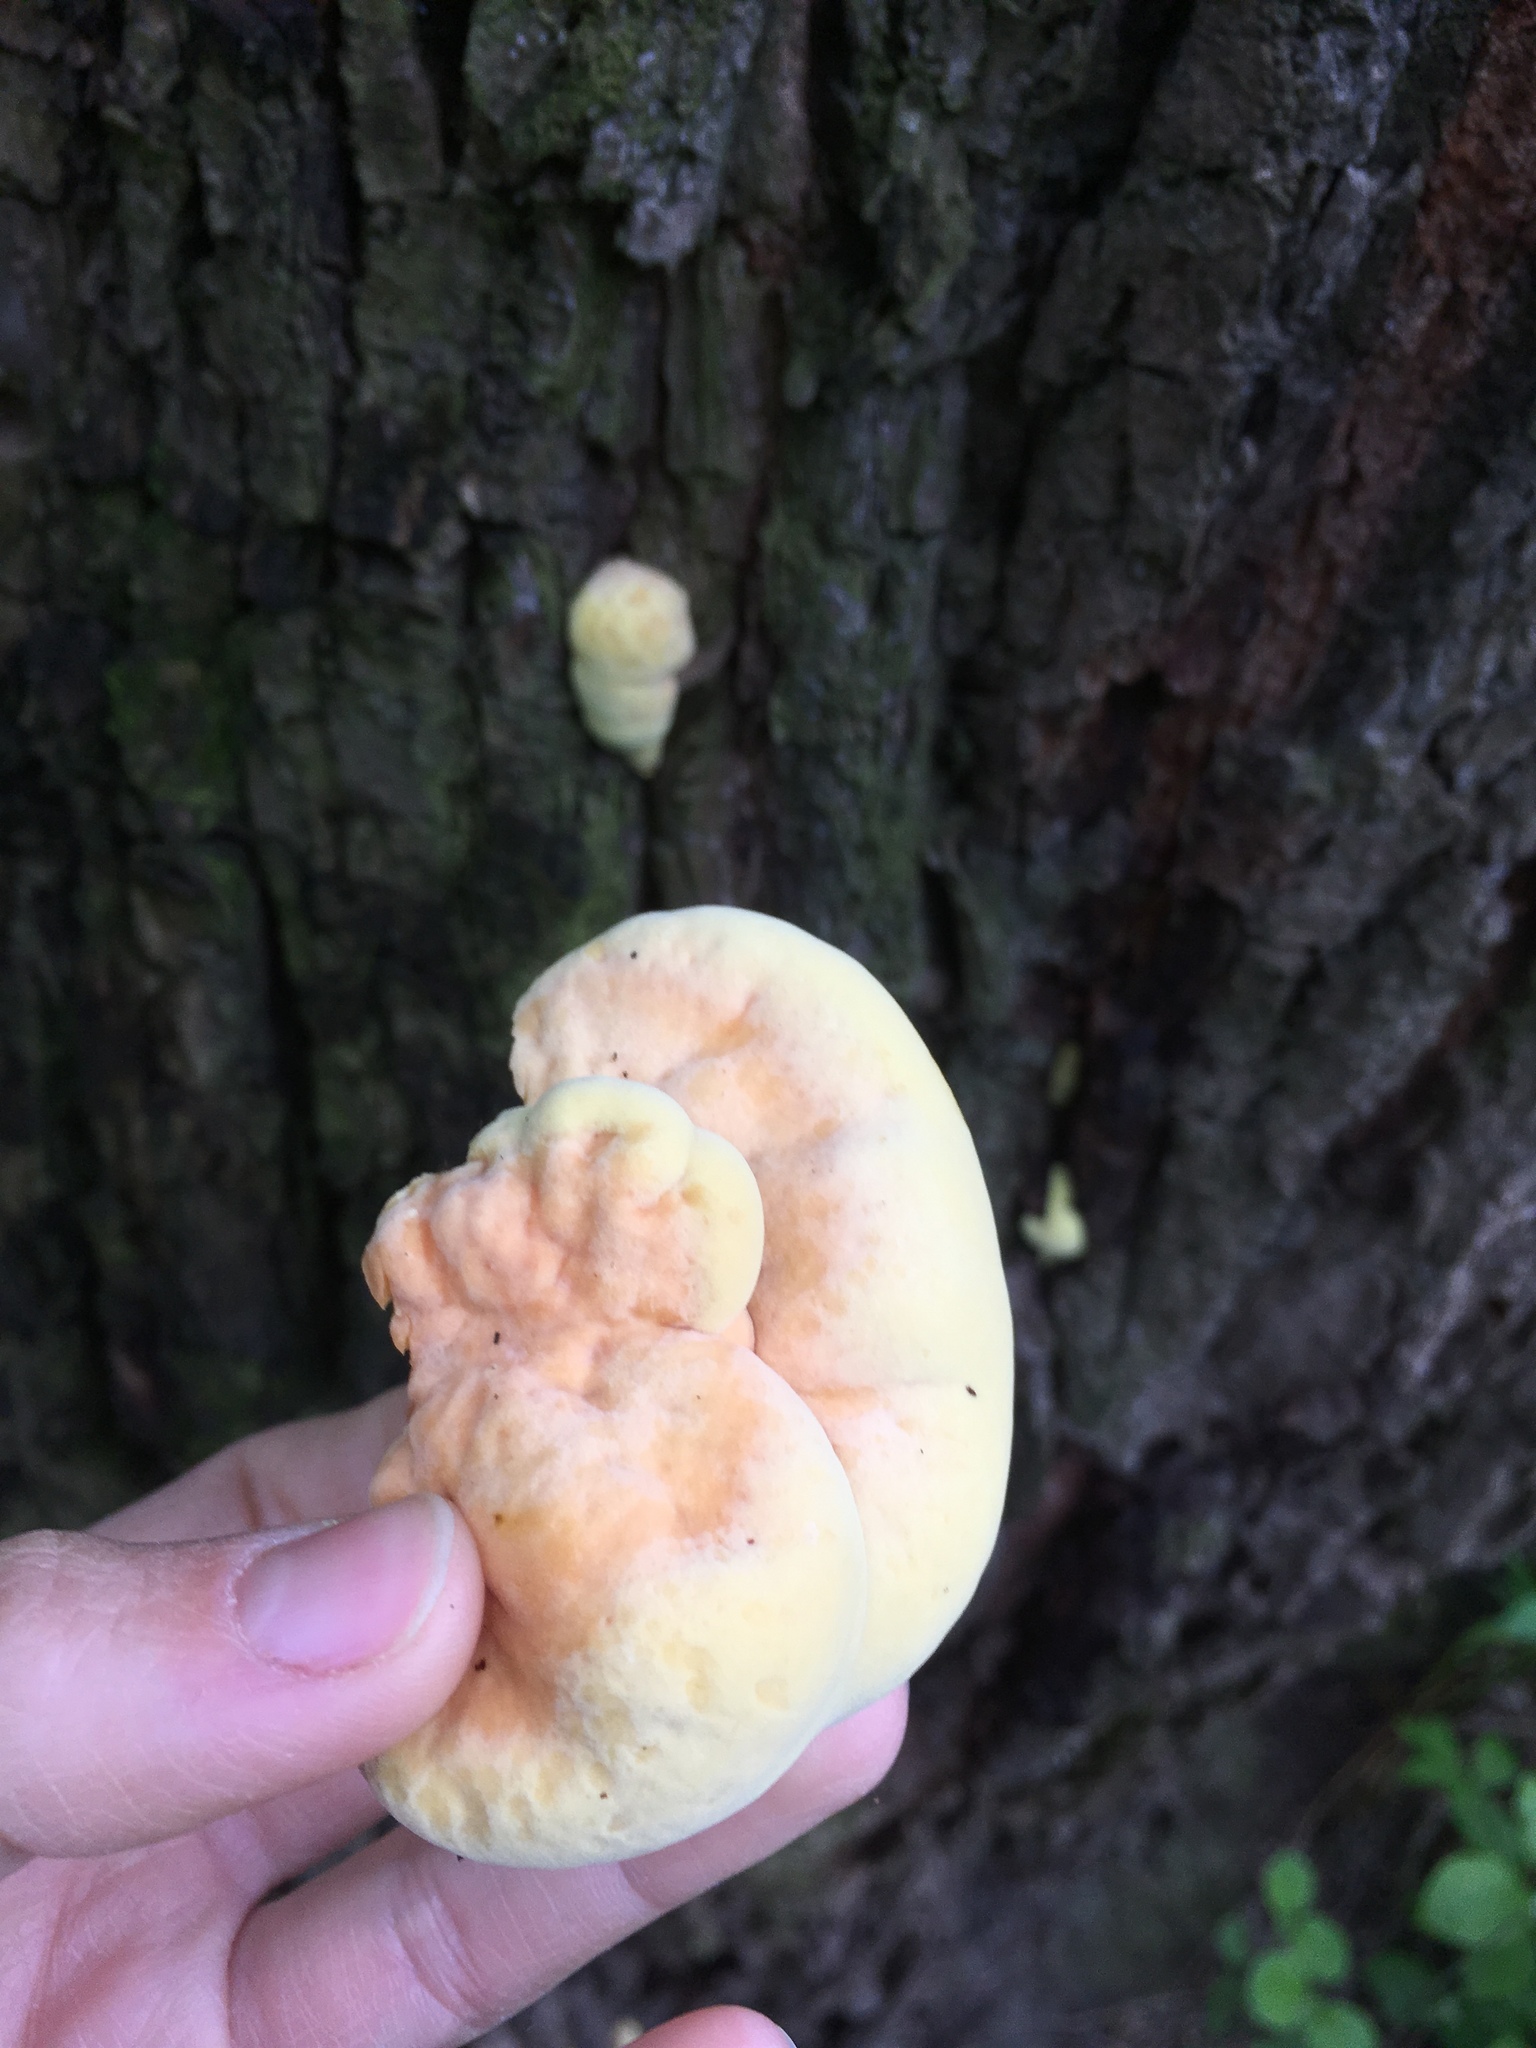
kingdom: Fungi
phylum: Basidiomycota
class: Agaricomycetes
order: Polyporales
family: Laetiporaceae
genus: Laetiporus
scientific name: Laetiporus sulphureus
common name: Chicken of the woods
